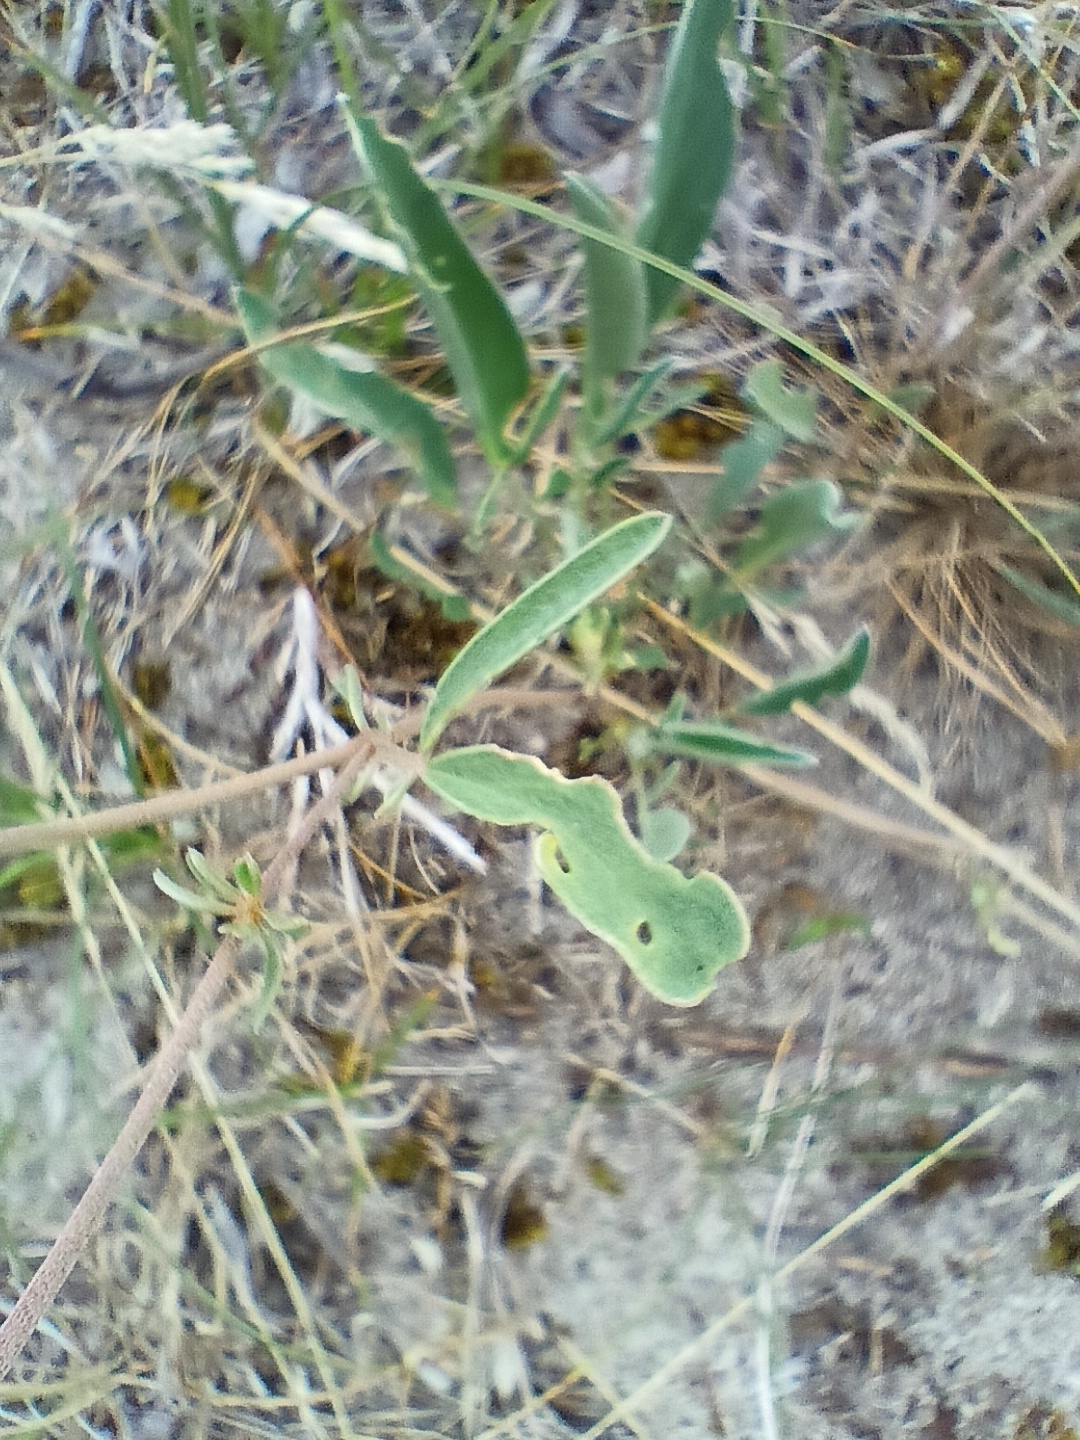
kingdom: Plantae
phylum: Tracheophyta
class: Magnoliopsida
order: Fabales
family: Fabaceae
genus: Anthyllis
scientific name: Anthyllis vulneraria
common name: Kidney vetch
